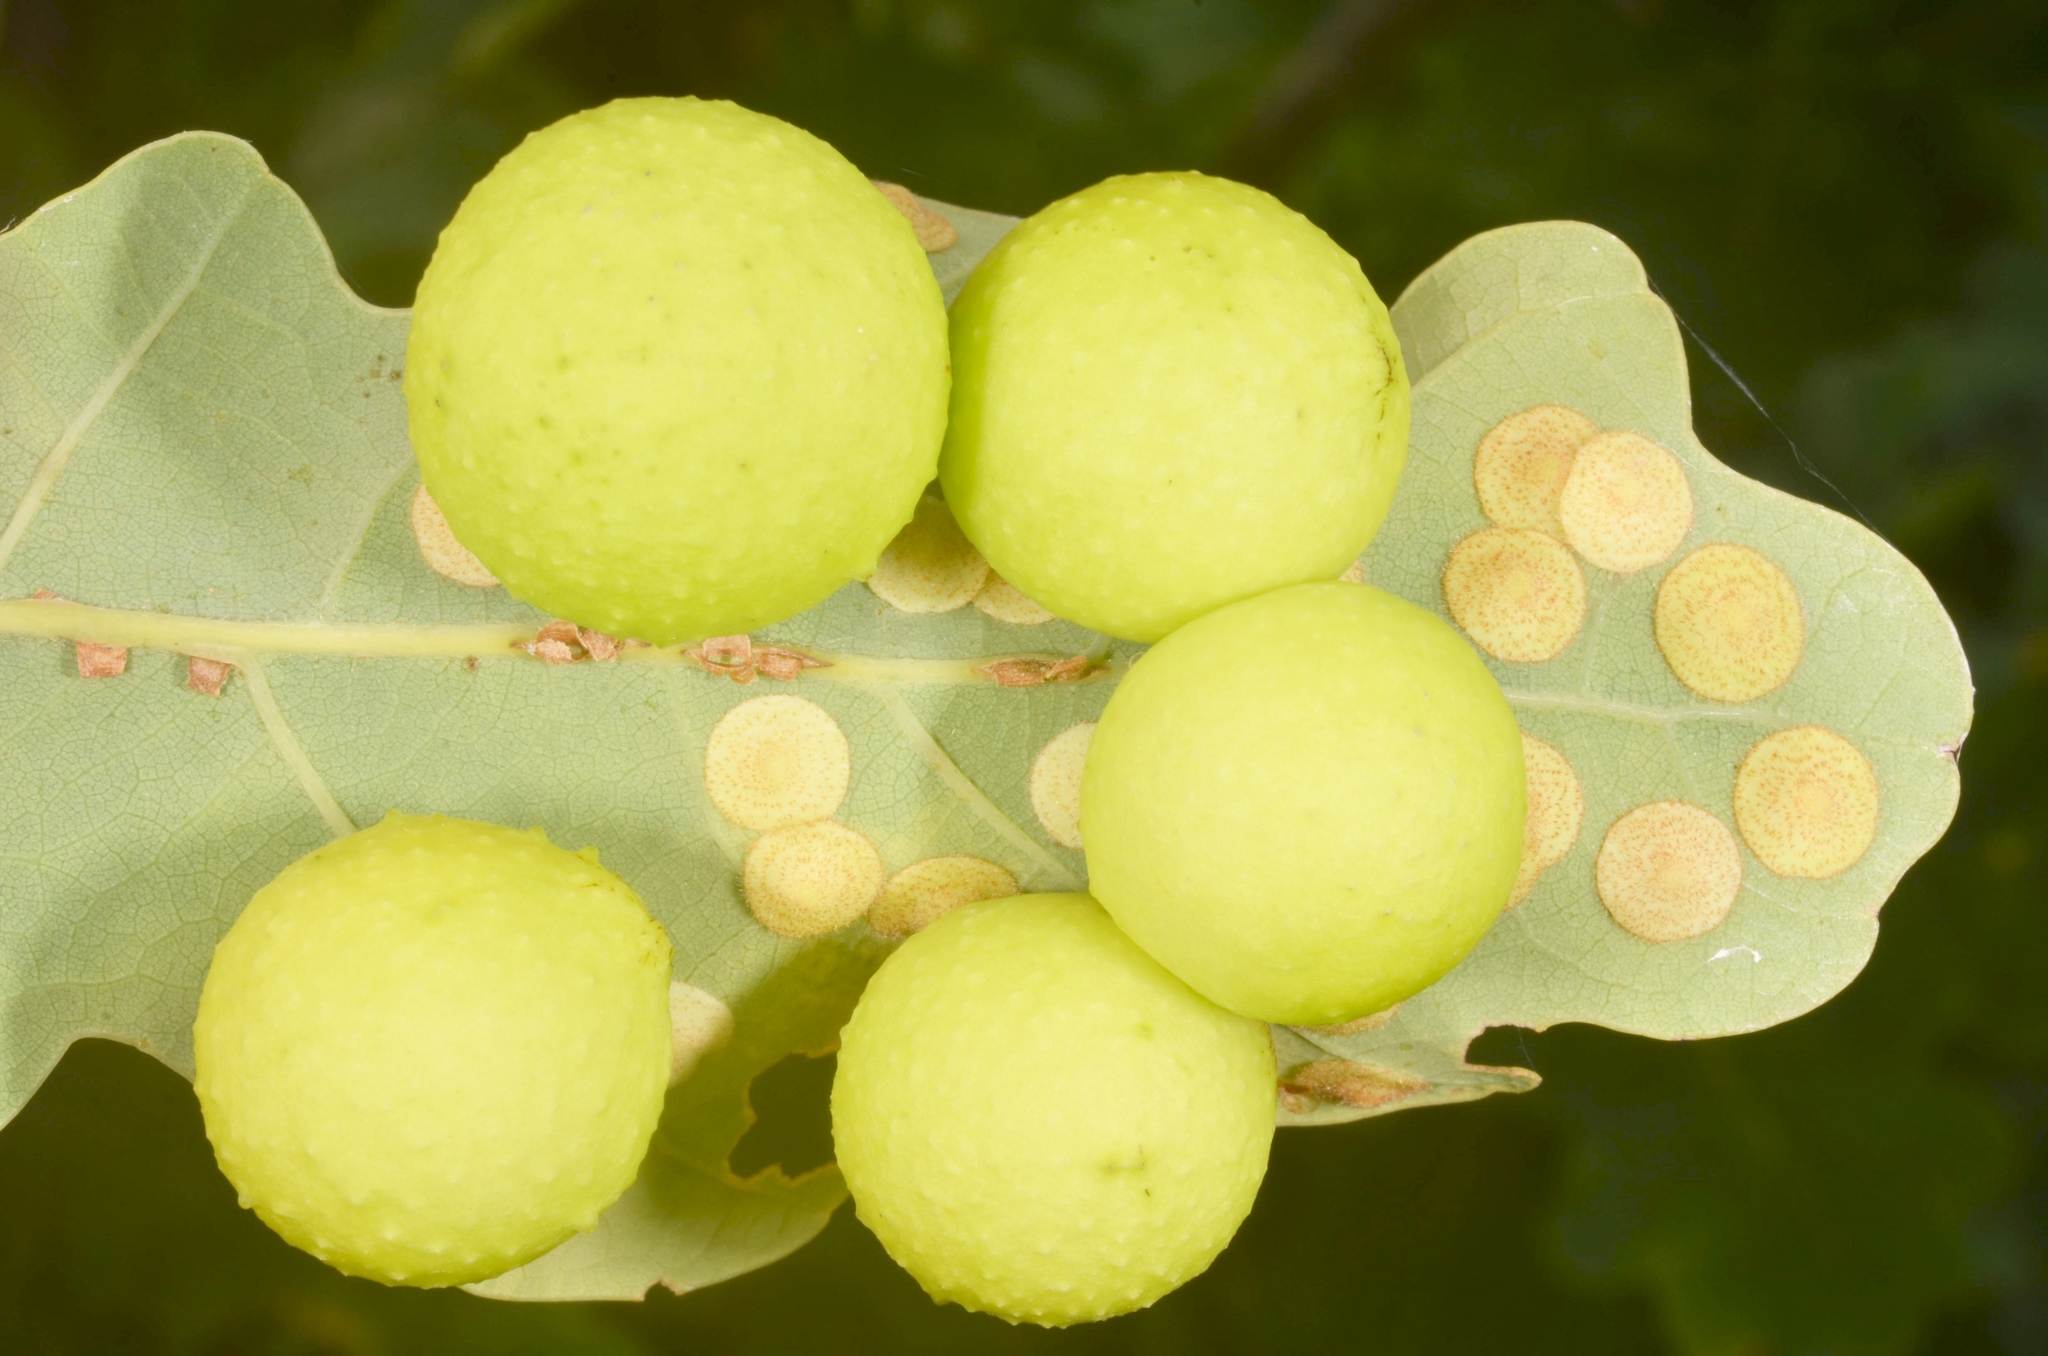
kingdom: Animalia
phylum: Arthropoda
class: Insecta
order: Hymenoptera
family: Cynipidae
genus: Cynips
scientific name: Cynips quercusfolii
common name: Cherry gall
